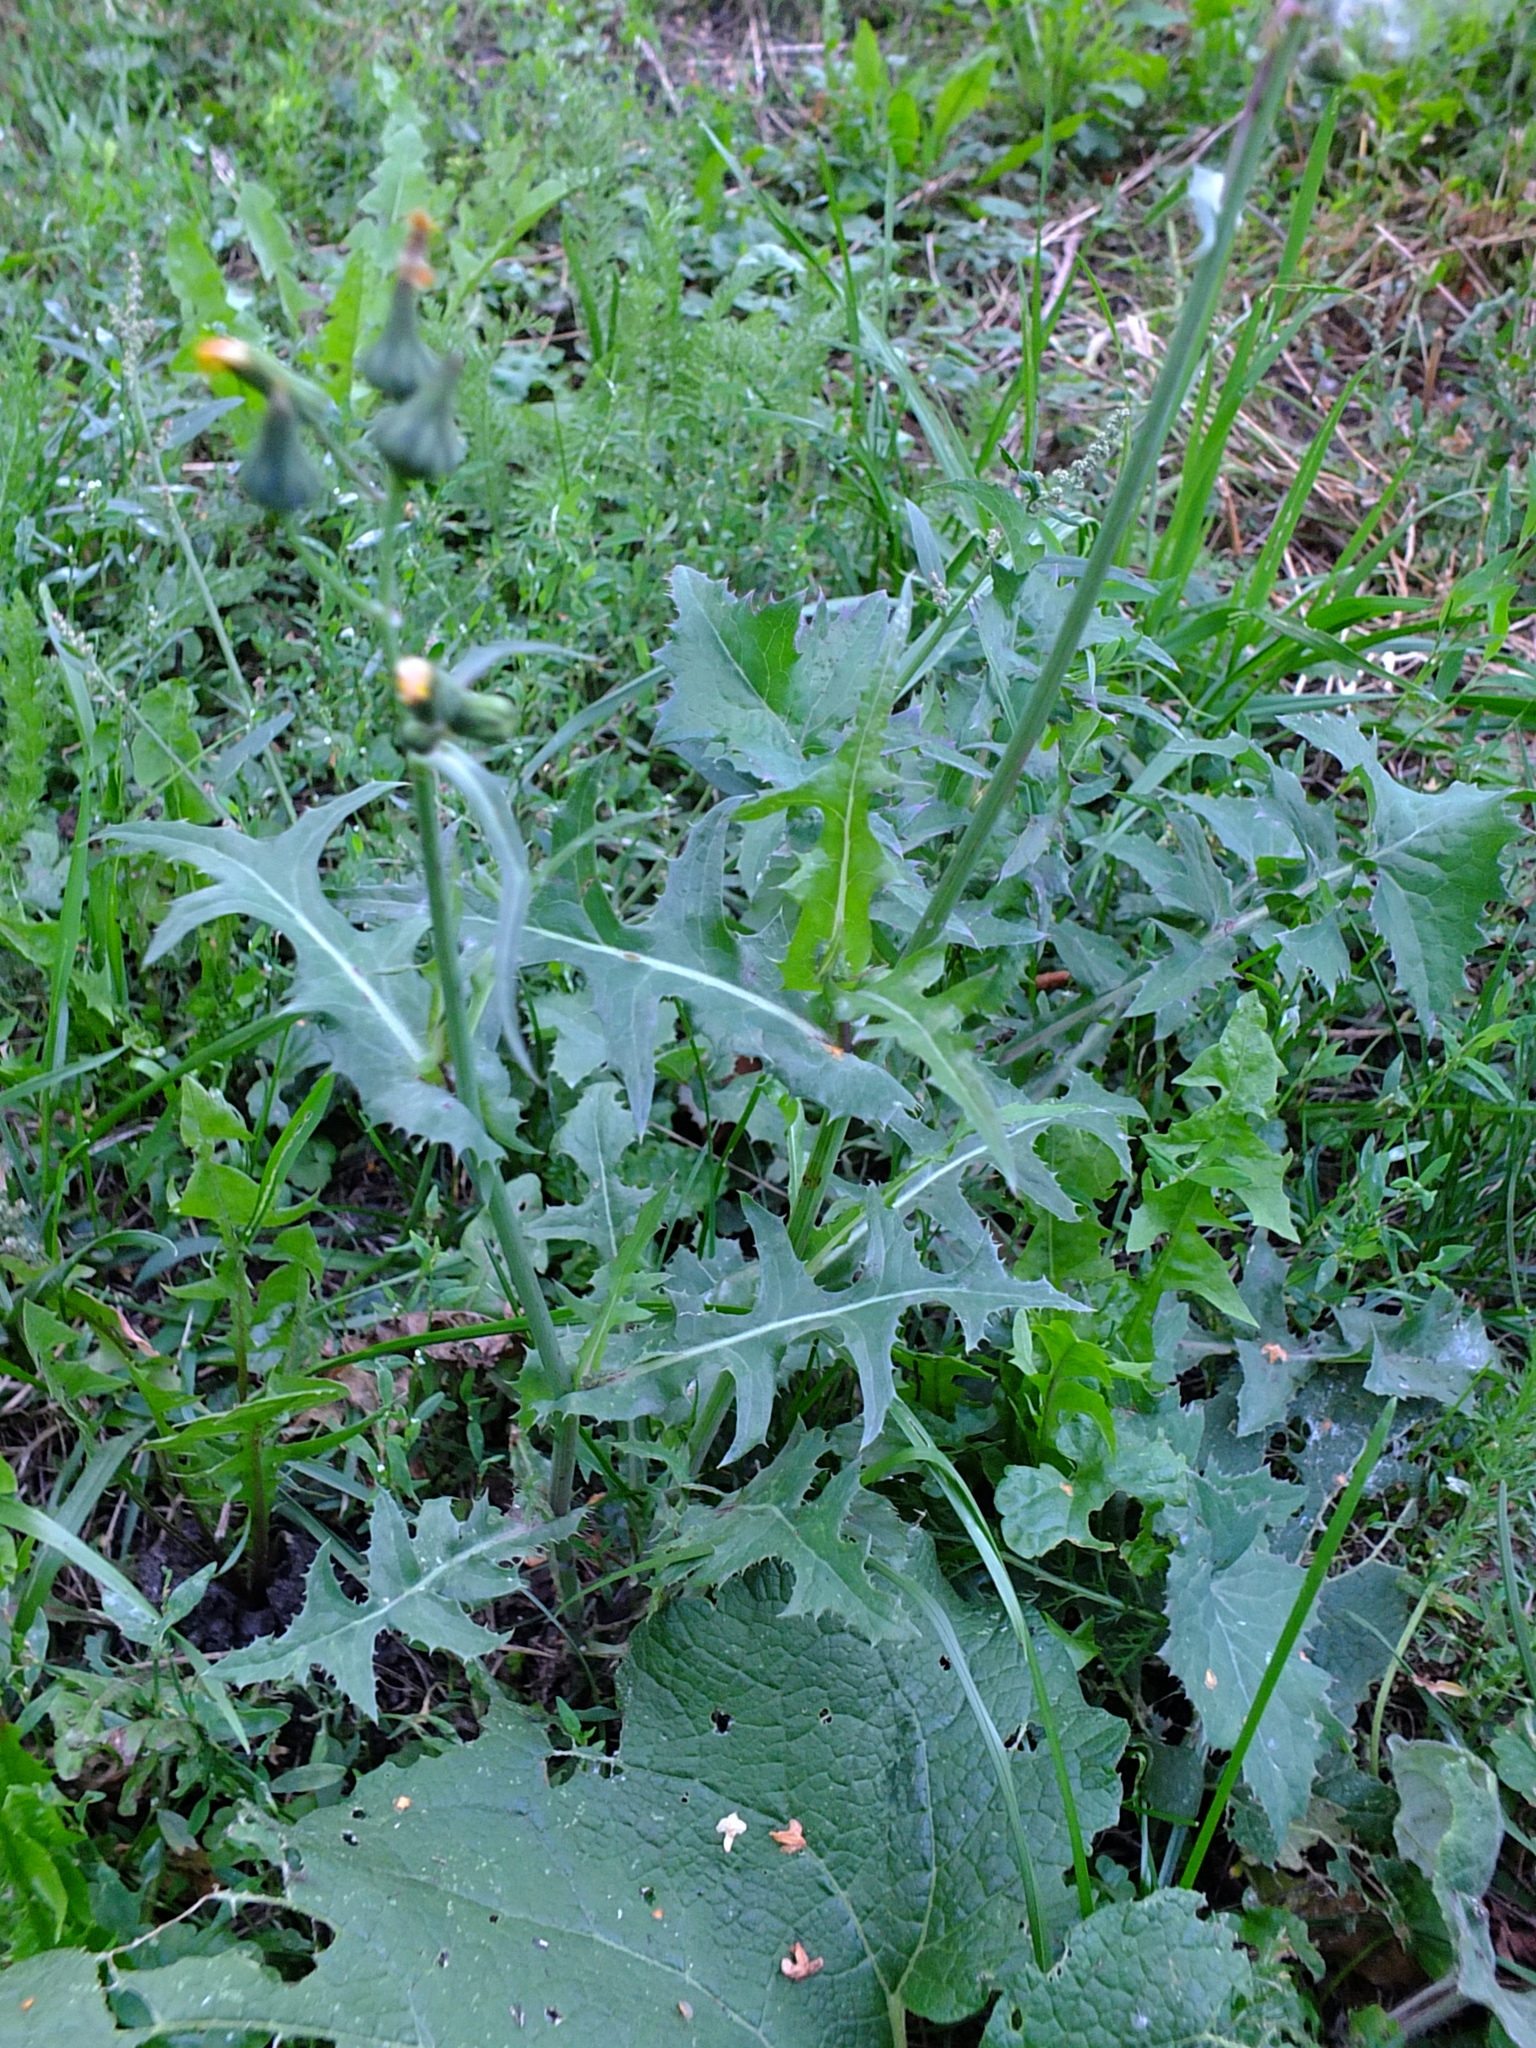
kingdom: Plantae
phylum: Tracheophyta
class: Magnoliopsida
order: Asterales
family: Asteraceae
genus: Sonchus
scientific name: Sonchus oleraceus
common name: Common sowthistle
